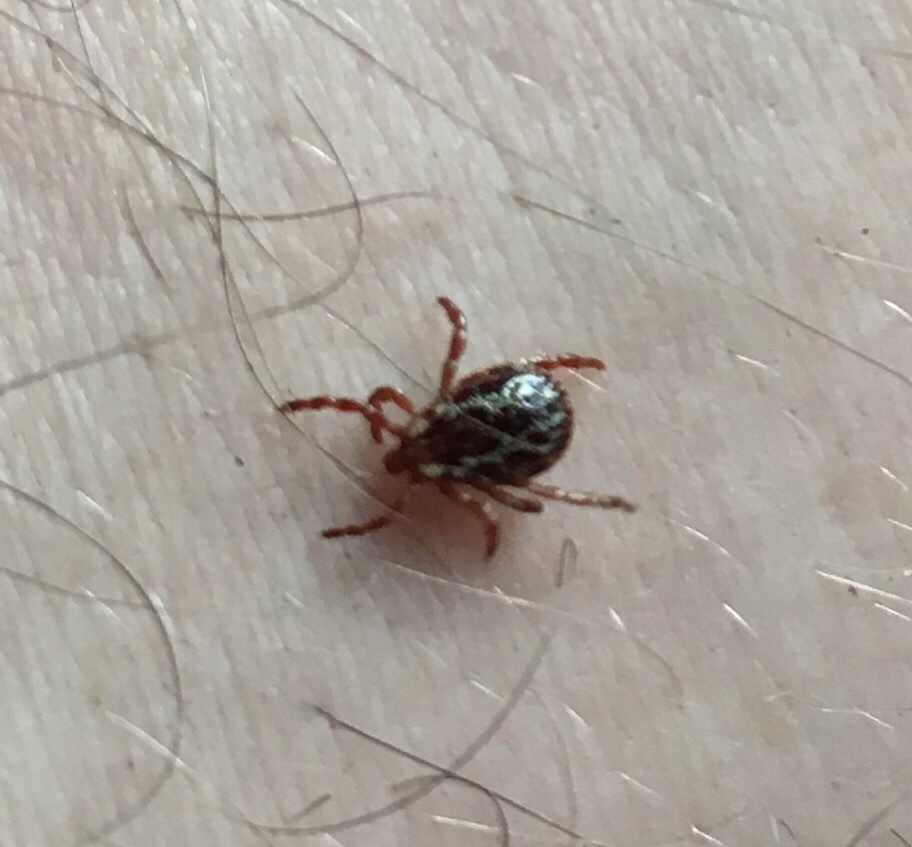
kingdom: Animalia
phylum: Arthropoda
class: Arachnida
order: Ixodida
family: Ixodidae
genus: Dermacentor
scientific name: Dermacentor variabilis
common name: American dog tick
